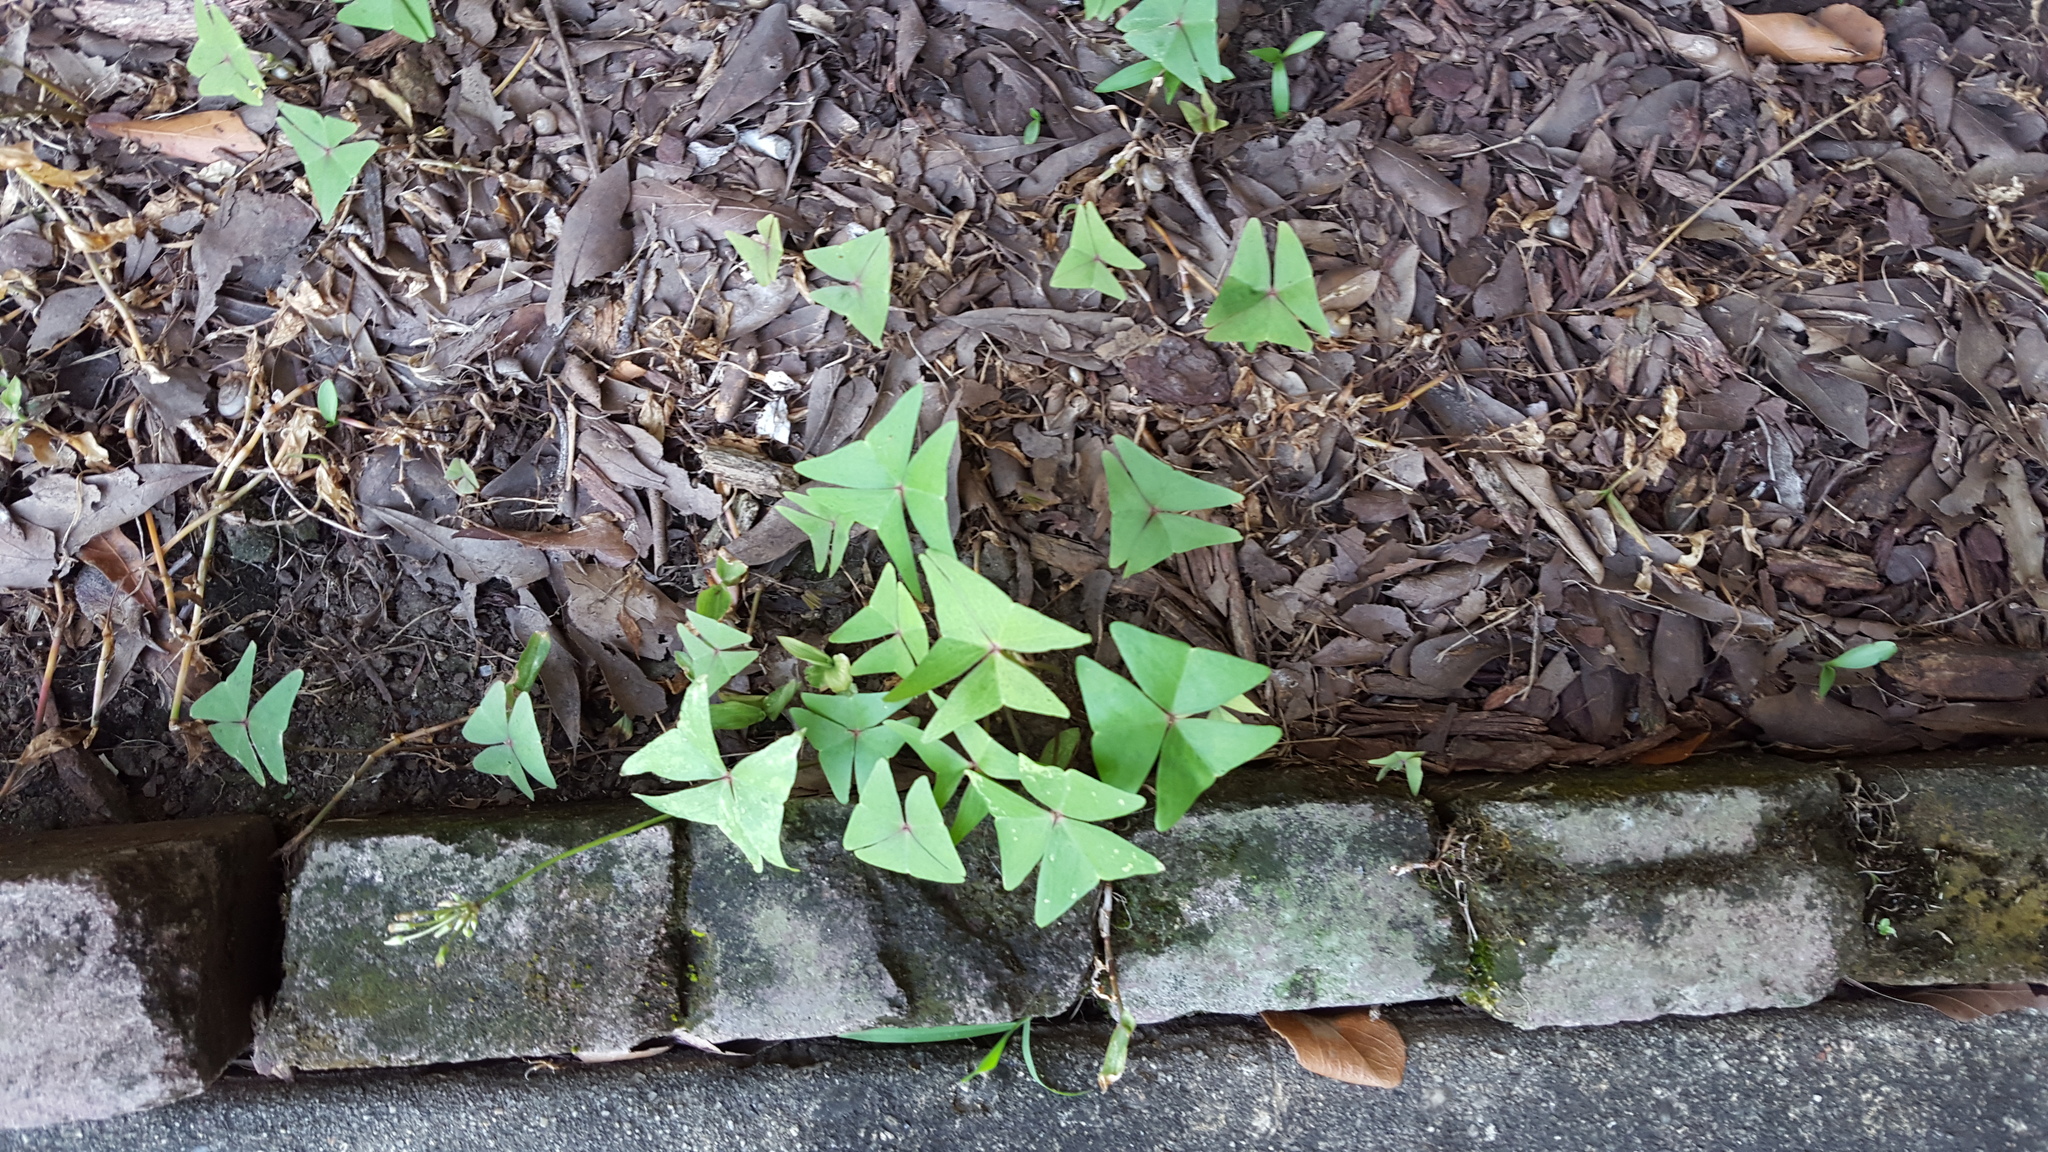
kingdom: Plantae
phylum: Tracheophyta
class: Magnoliopsida
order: Oxalidales
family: Oxalidaceae
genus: Oxalis
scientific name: Oxalis intermedia
